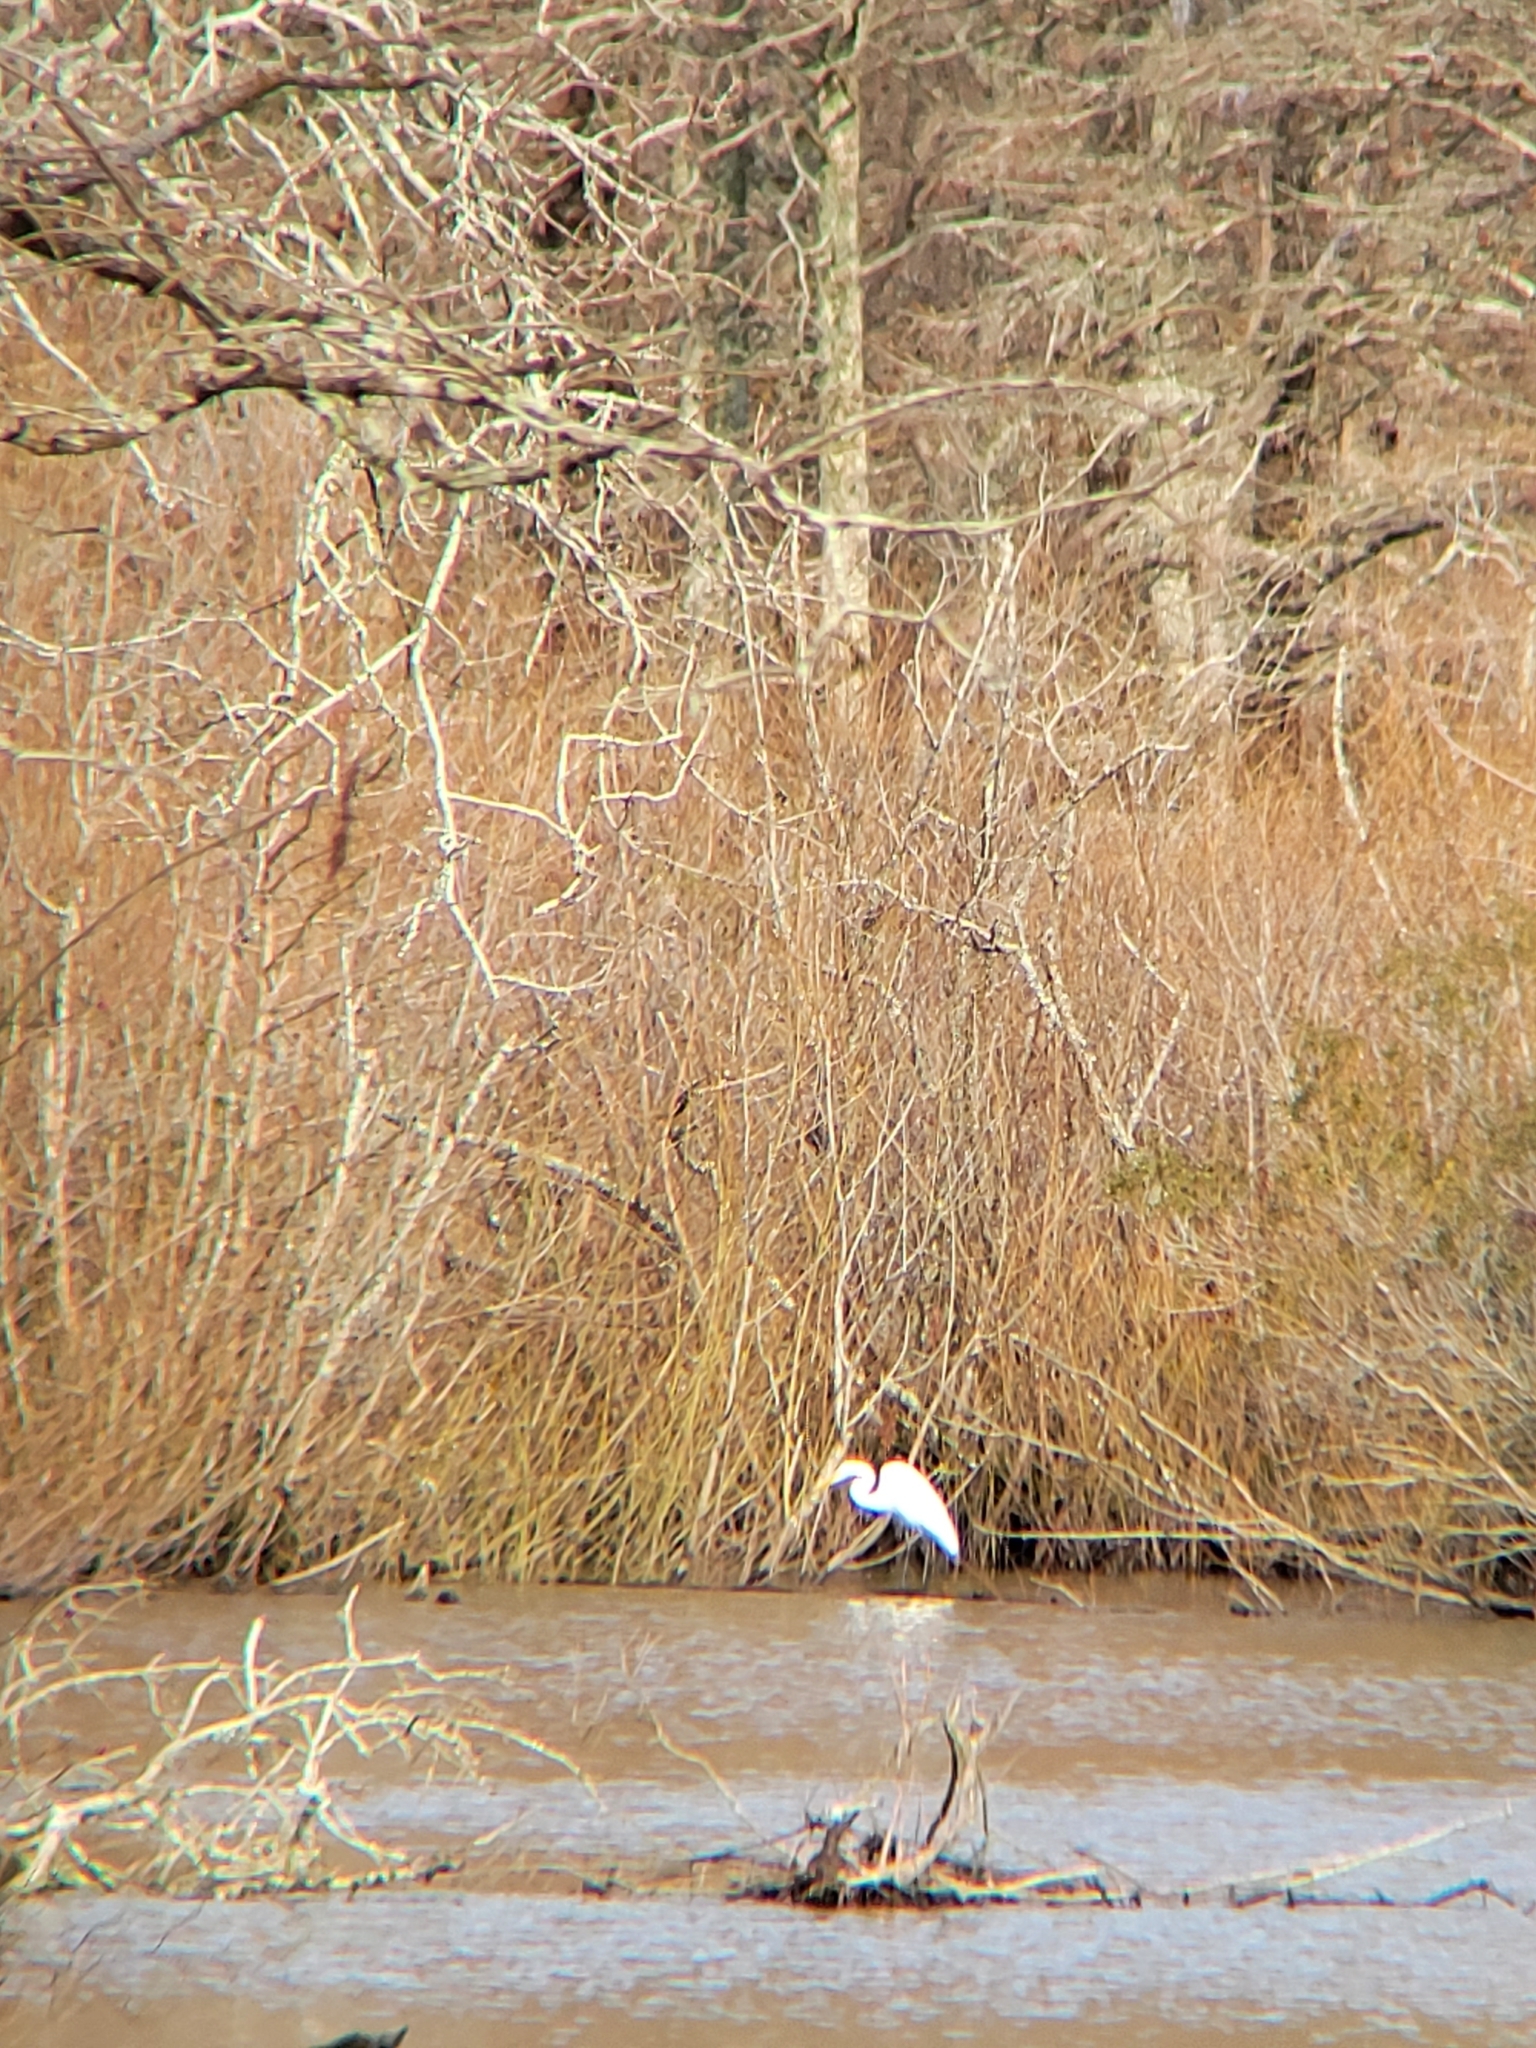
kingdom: Animalia
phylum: Chordata
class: Aves
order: Pelecaniformes
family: Ardeidae
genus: Ardea
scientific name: Ardea alba
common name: Great egret
